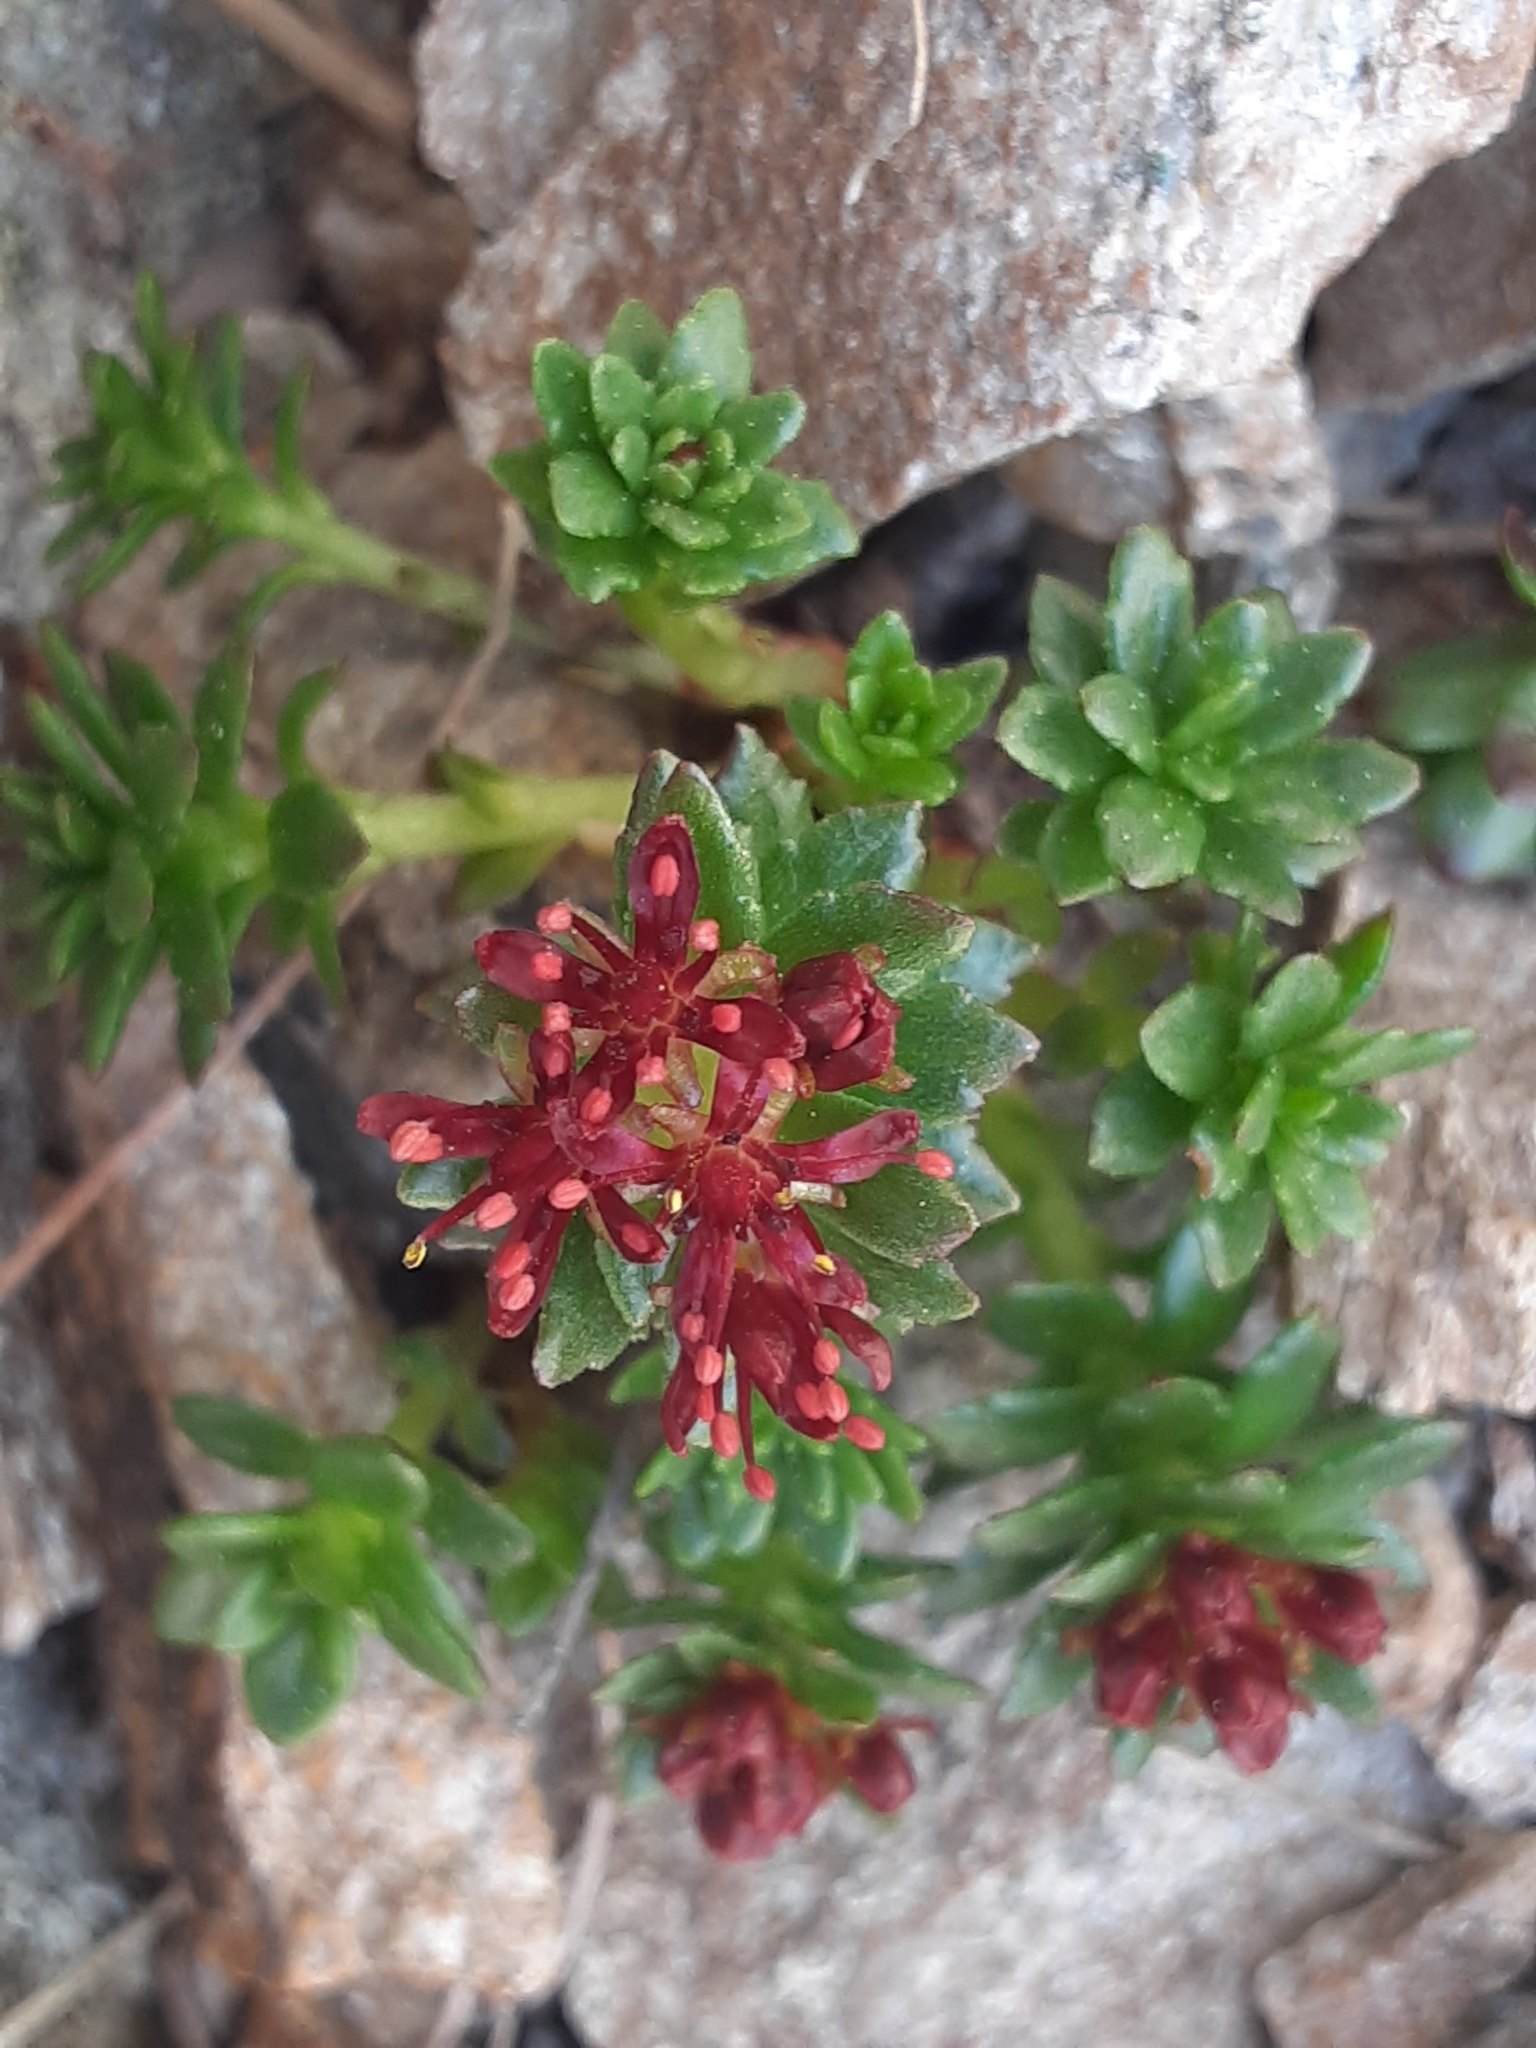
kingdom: Plantae
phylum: Tracheophyta
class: Magnoliopsida
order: Saxifragales
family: Crassulaceae
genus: Rhodiola
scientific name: Rhodiola integrifolia
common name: Western roseroot
